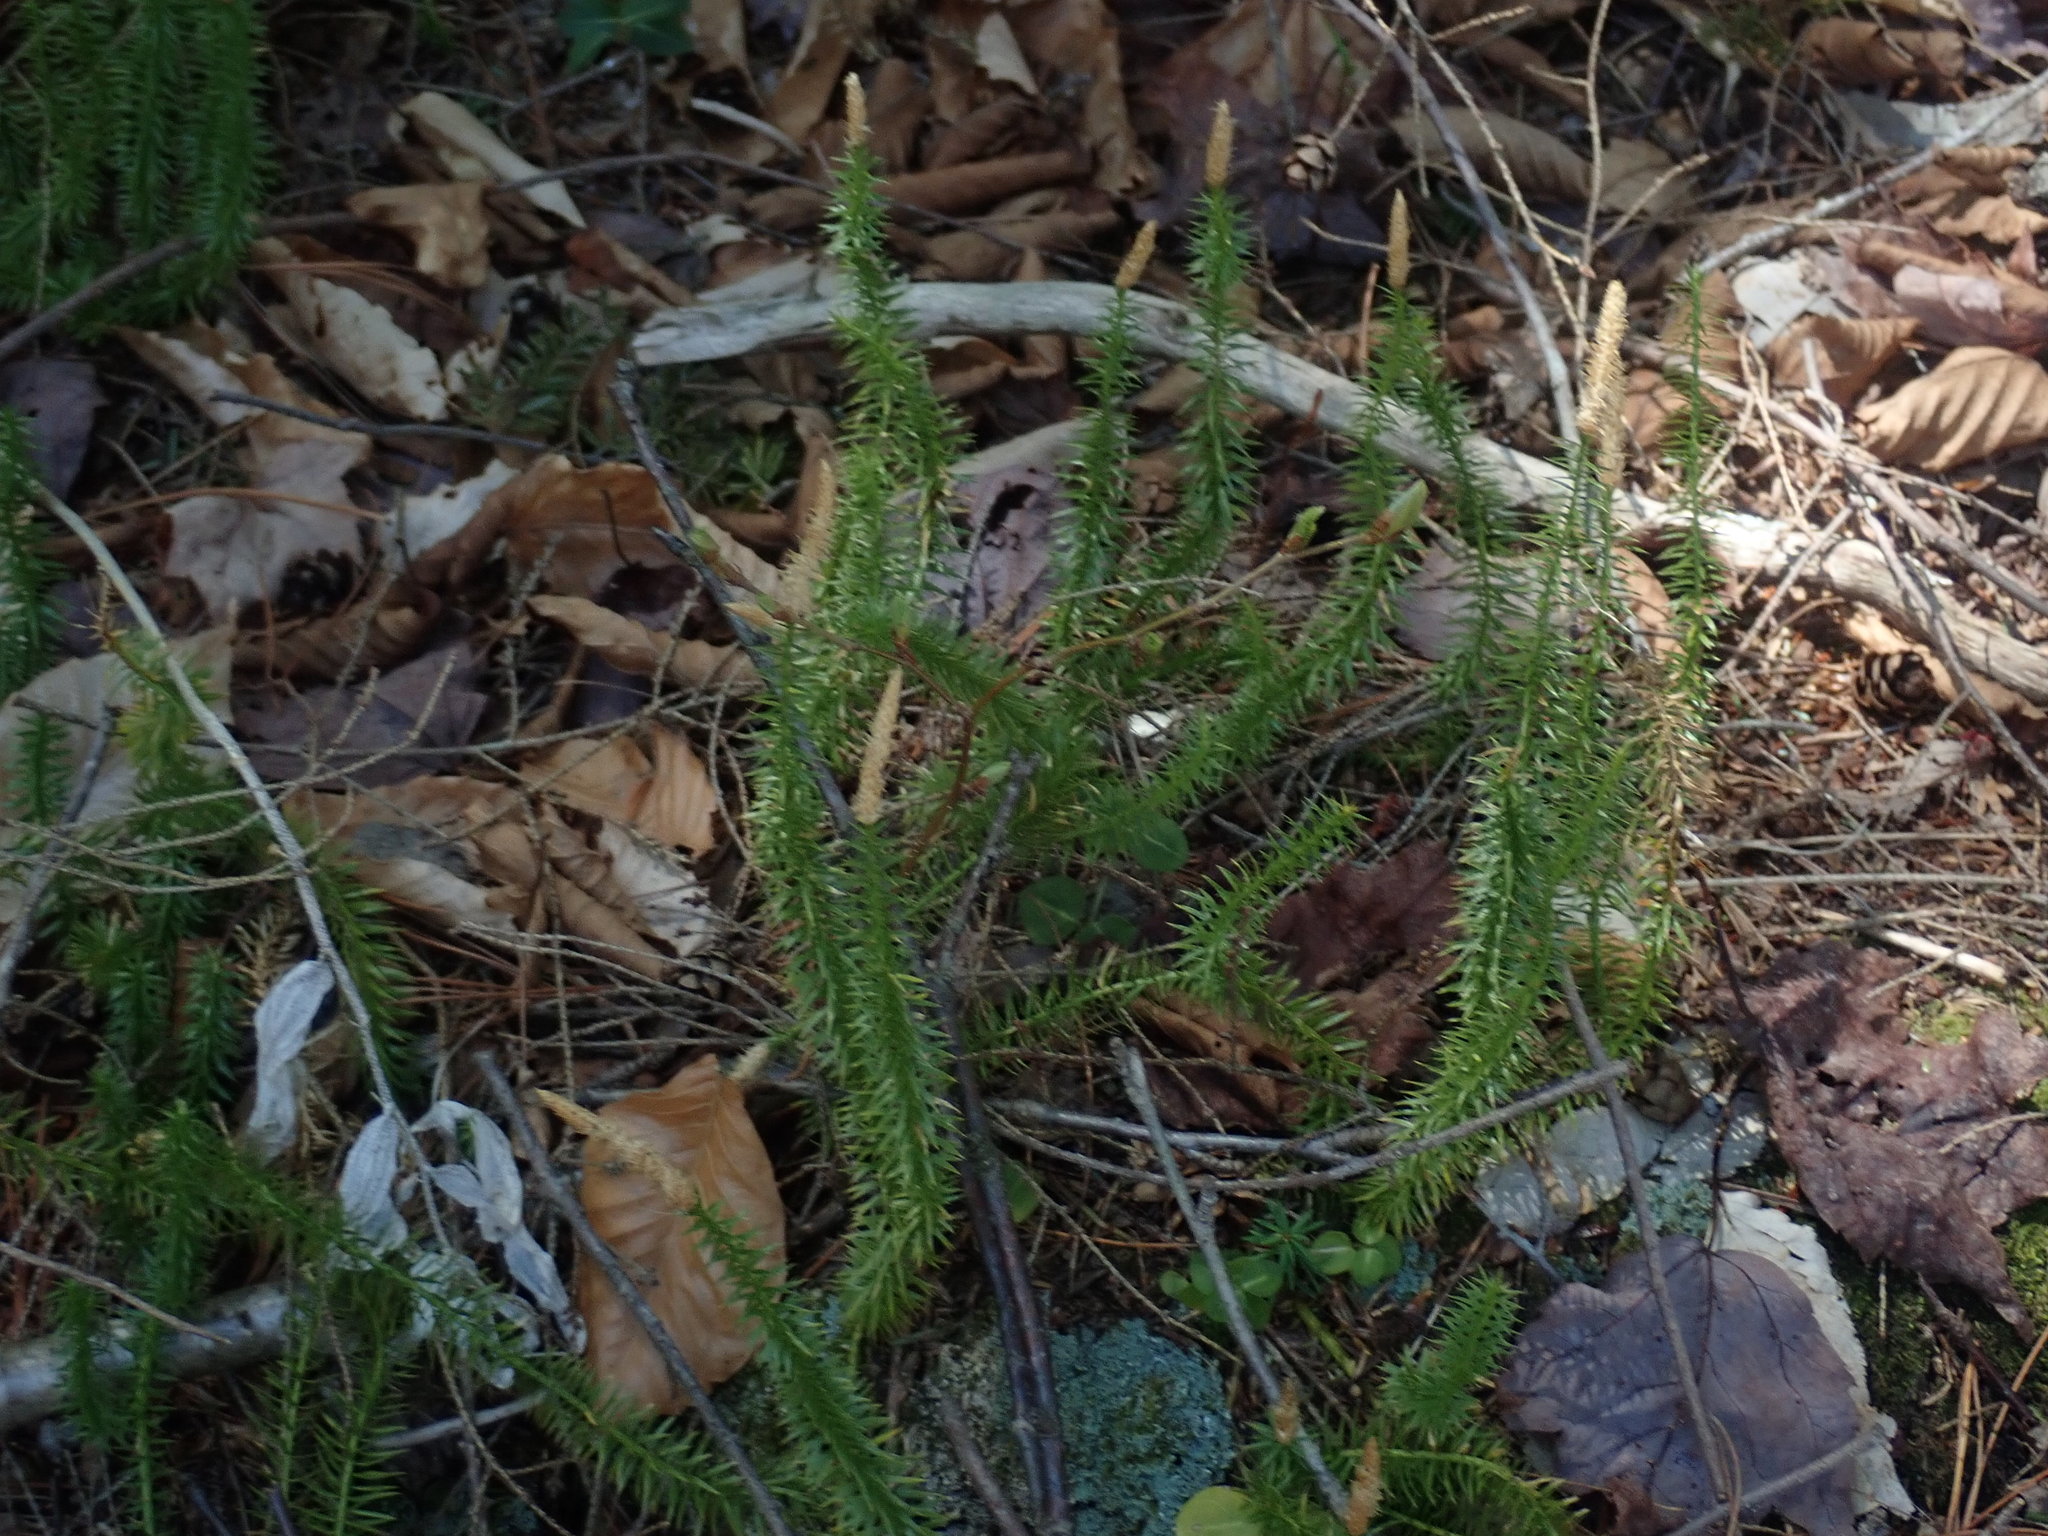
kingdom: Plantae
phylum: Tracheophyta
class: Lycopodiopsida
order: Lycopodiales
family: Lycopodiaceae
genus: Spinulum
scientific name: Spinulum annotinum
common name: Interrupted club-moss
